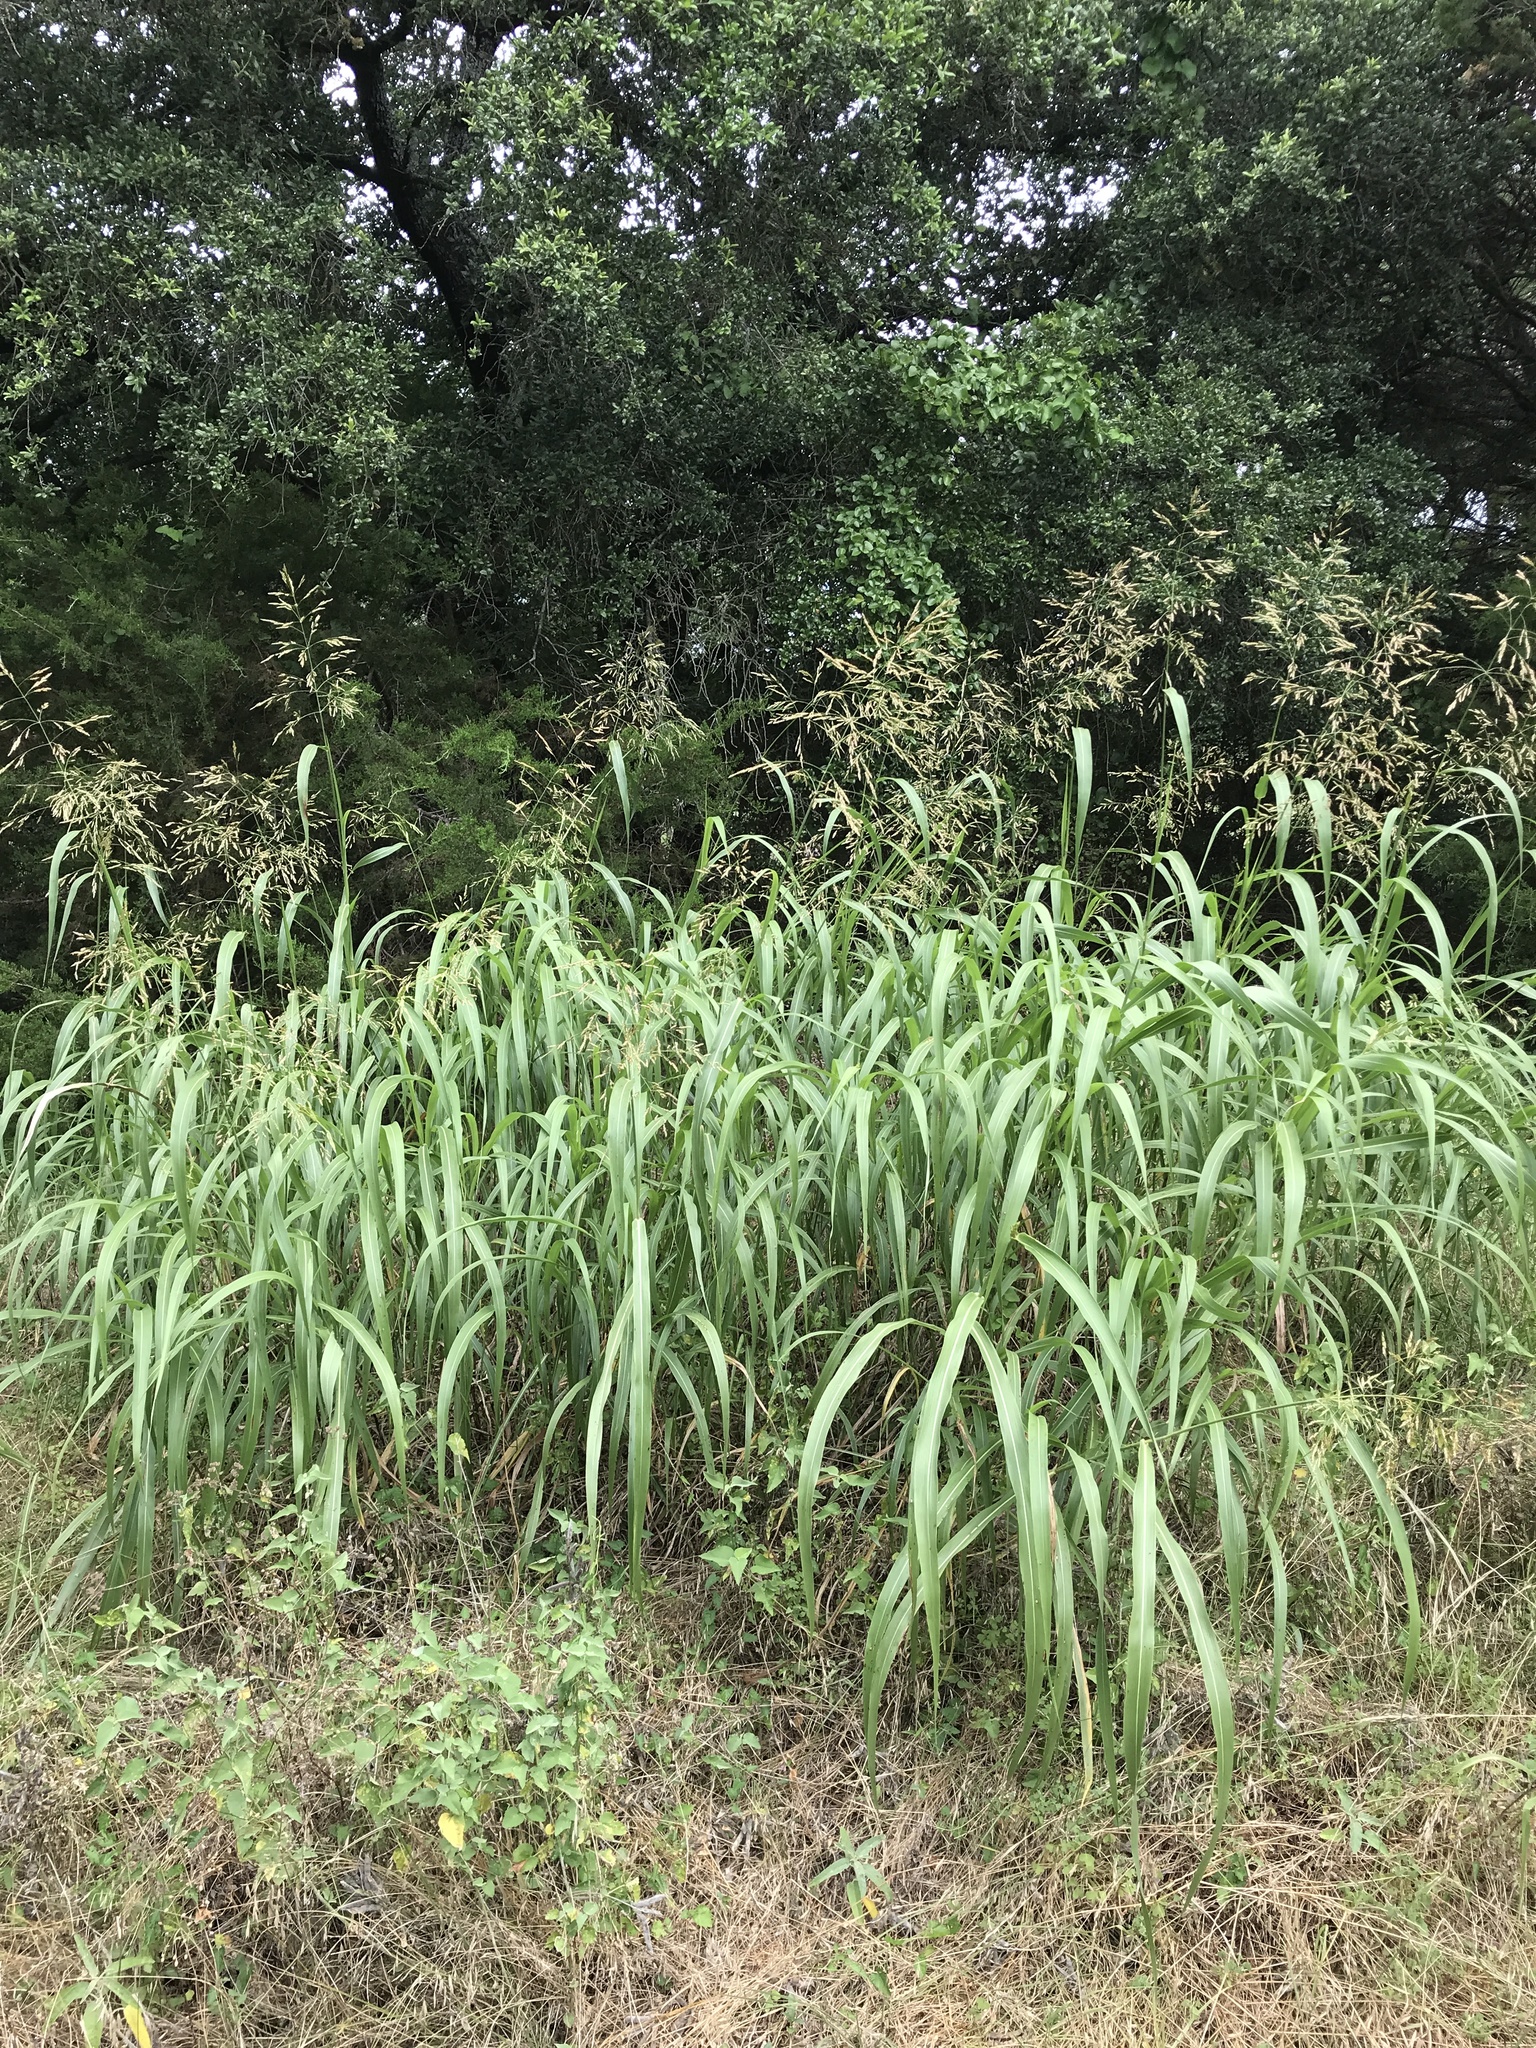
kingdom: Plantae
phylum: Tracheophyta
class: Liliopsida
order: Poales
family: Poaceae
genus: Sorghum
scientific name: Sorghum halepense
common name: Johnson-grass
